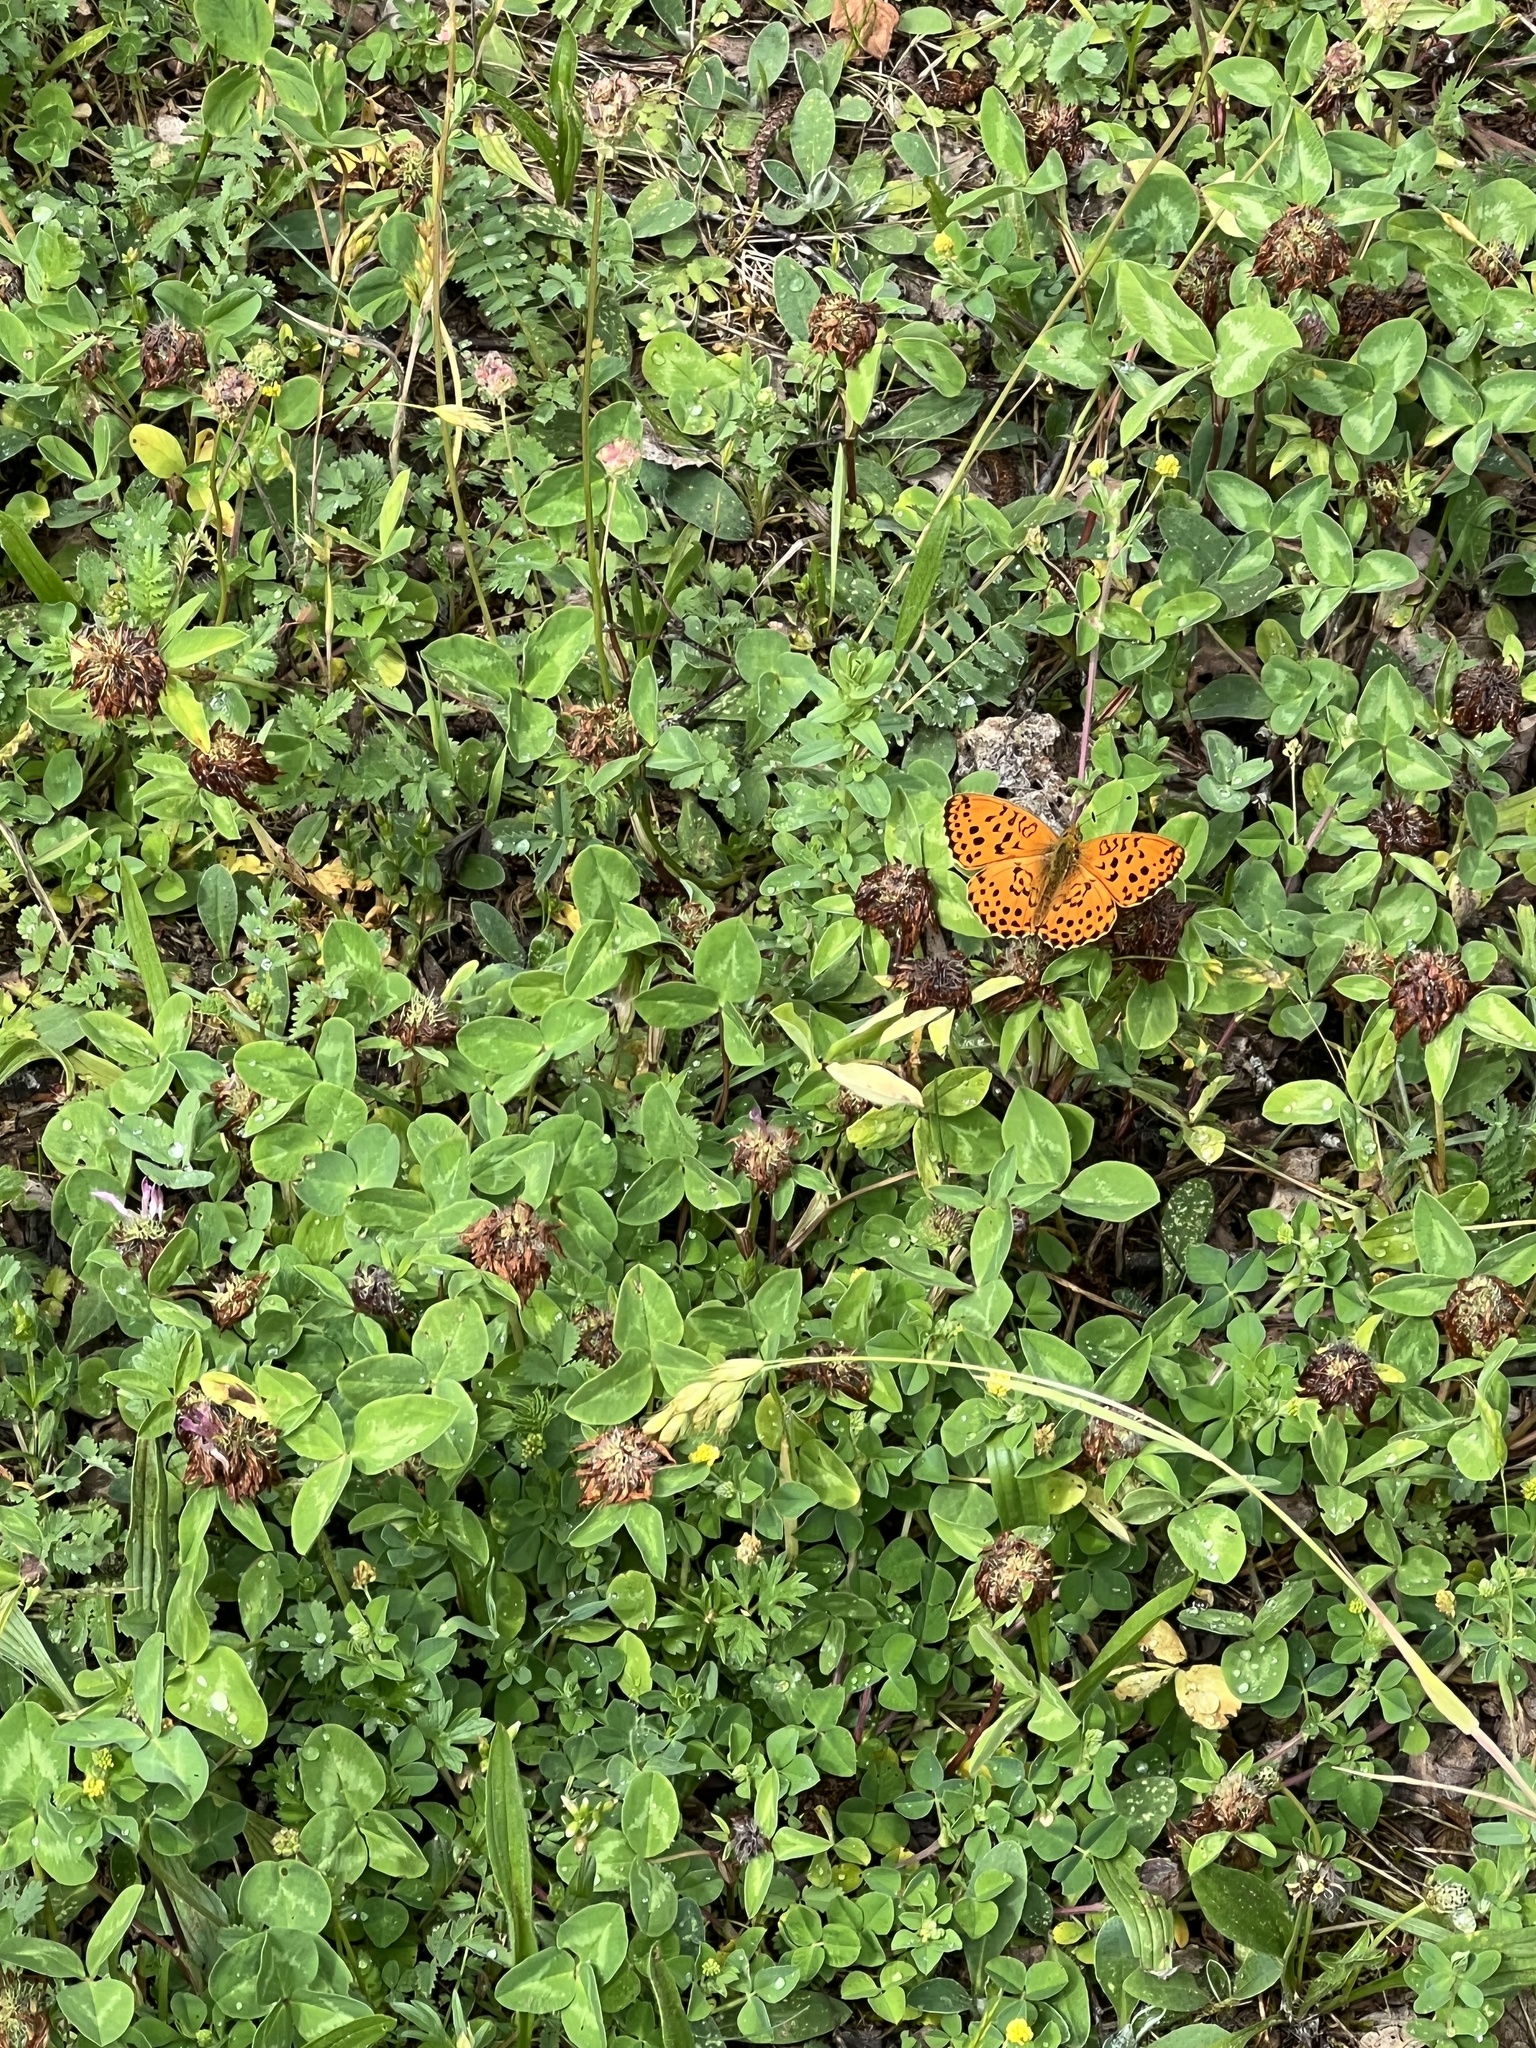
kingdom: Animalia
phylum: Arthropoda
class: Insecta
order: Lepidoptera
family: Nymphalidae
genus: Brenthis
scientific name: Brenthis daphne
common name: Marbled fritillary
